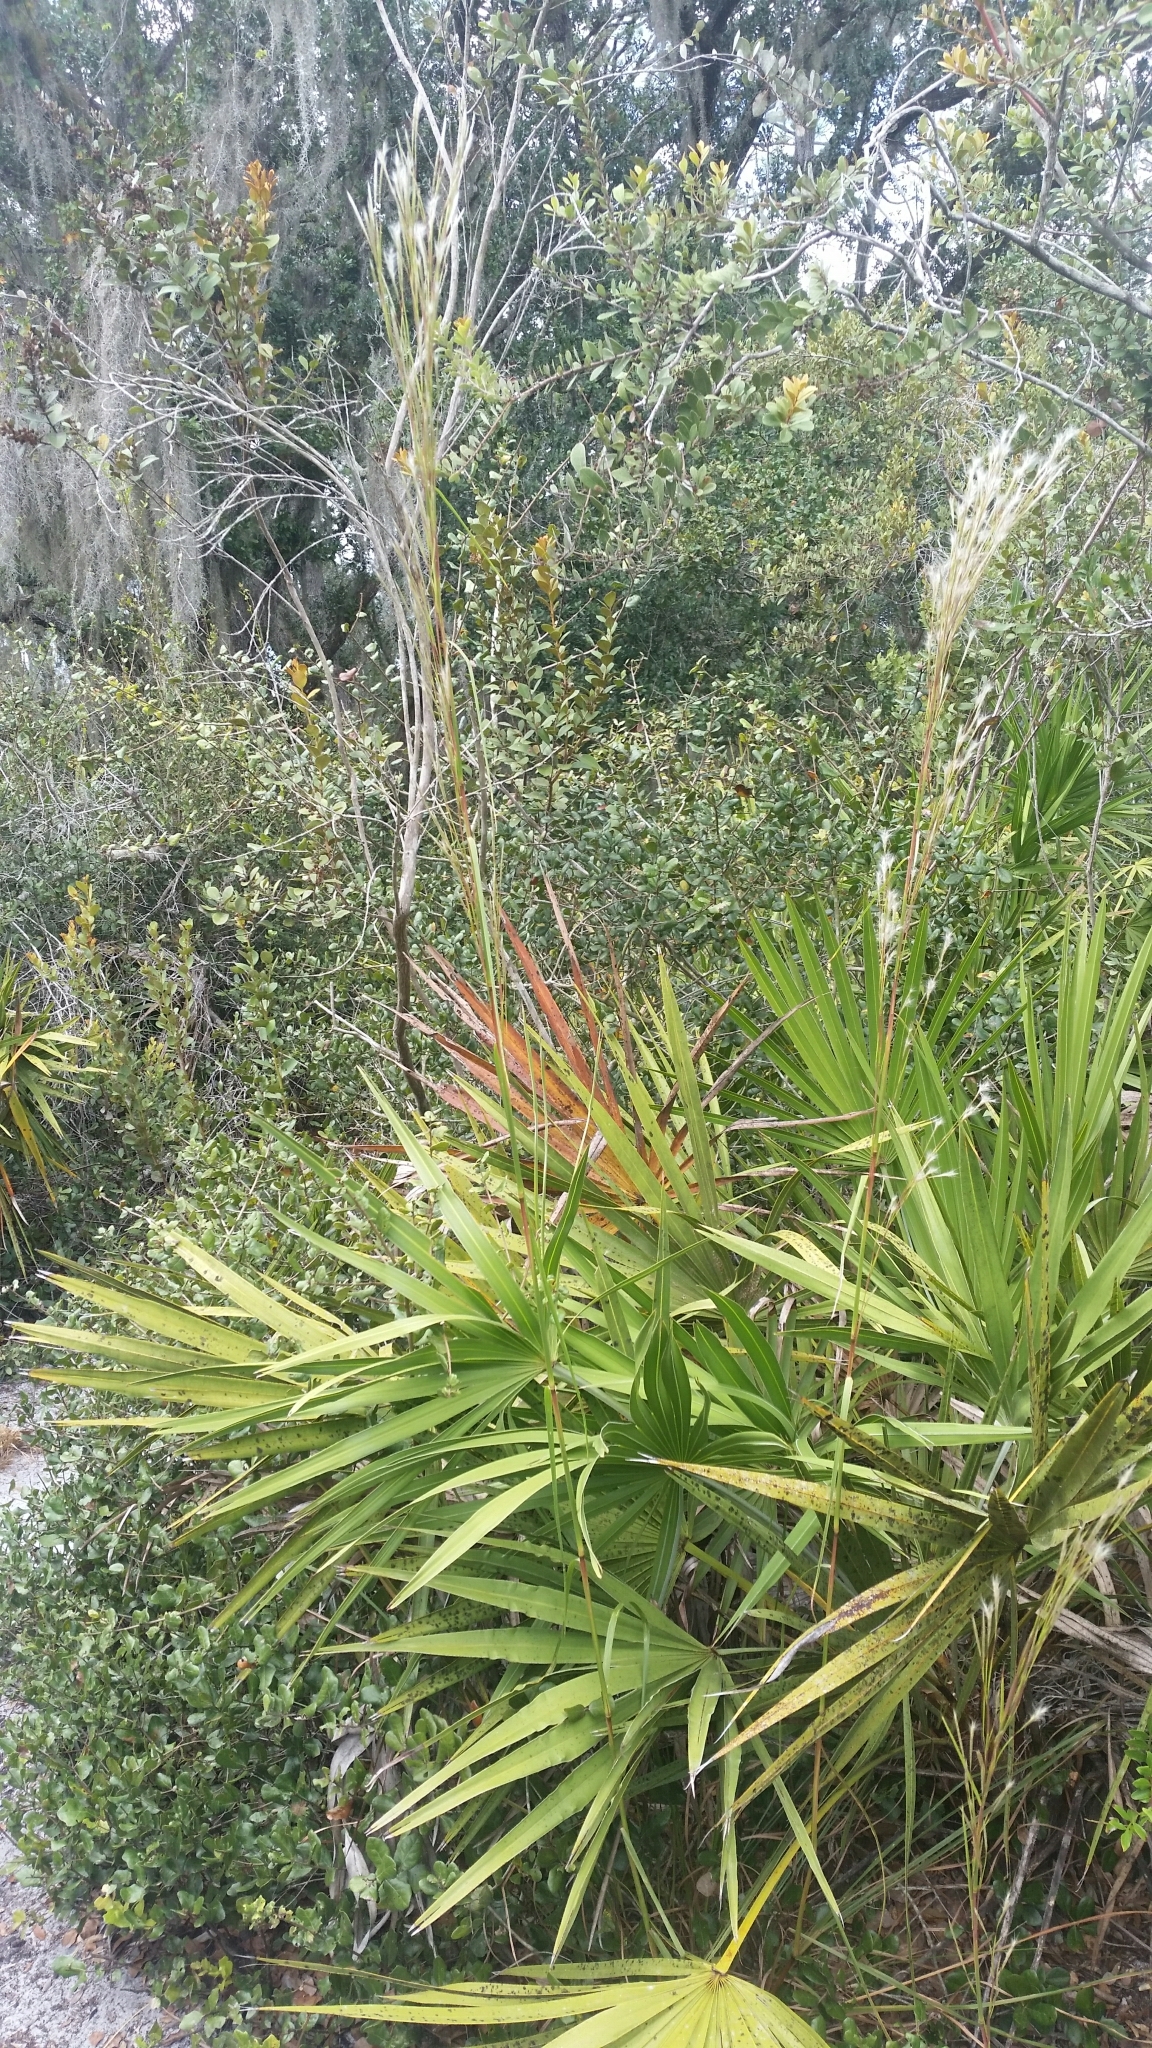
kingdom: Plantae
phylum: Tracheophyta
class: Liliopsida
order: Poales
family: Poaceae
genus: Andropogon
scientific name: Andropogon floridanus
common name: Florida bluestem
